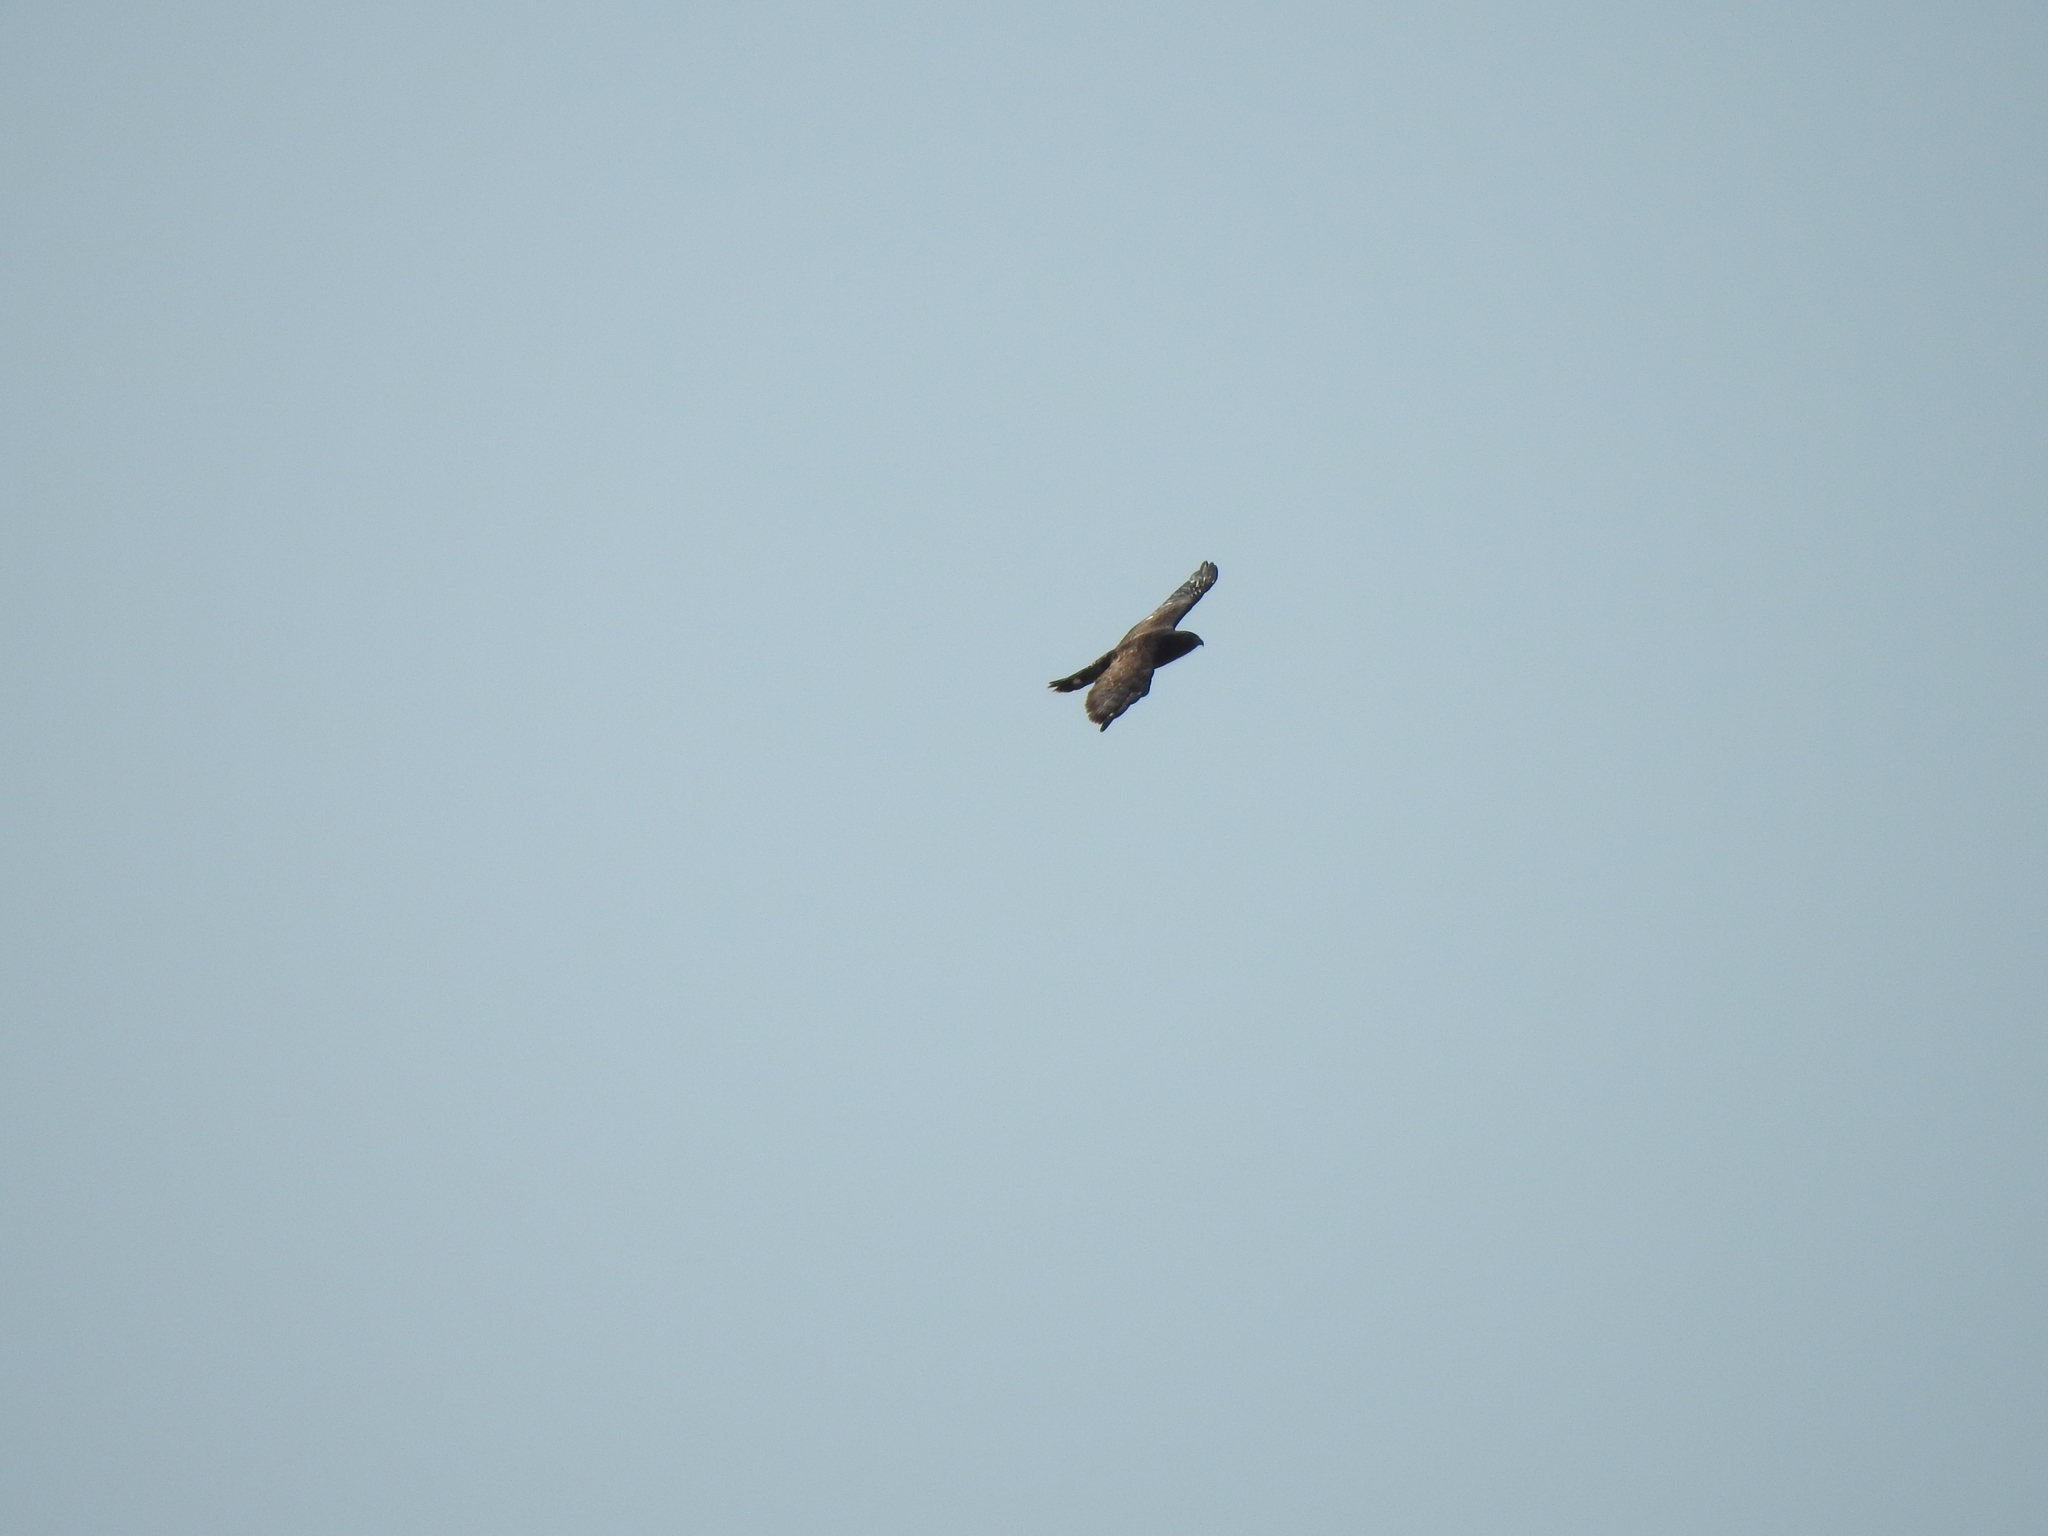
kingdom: Animalia
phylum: Chordata
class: Aves
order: Accipitriformes
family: Accipitridae
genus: Buteo
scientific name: Buteo platypterus
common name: Broad-winged hawk
